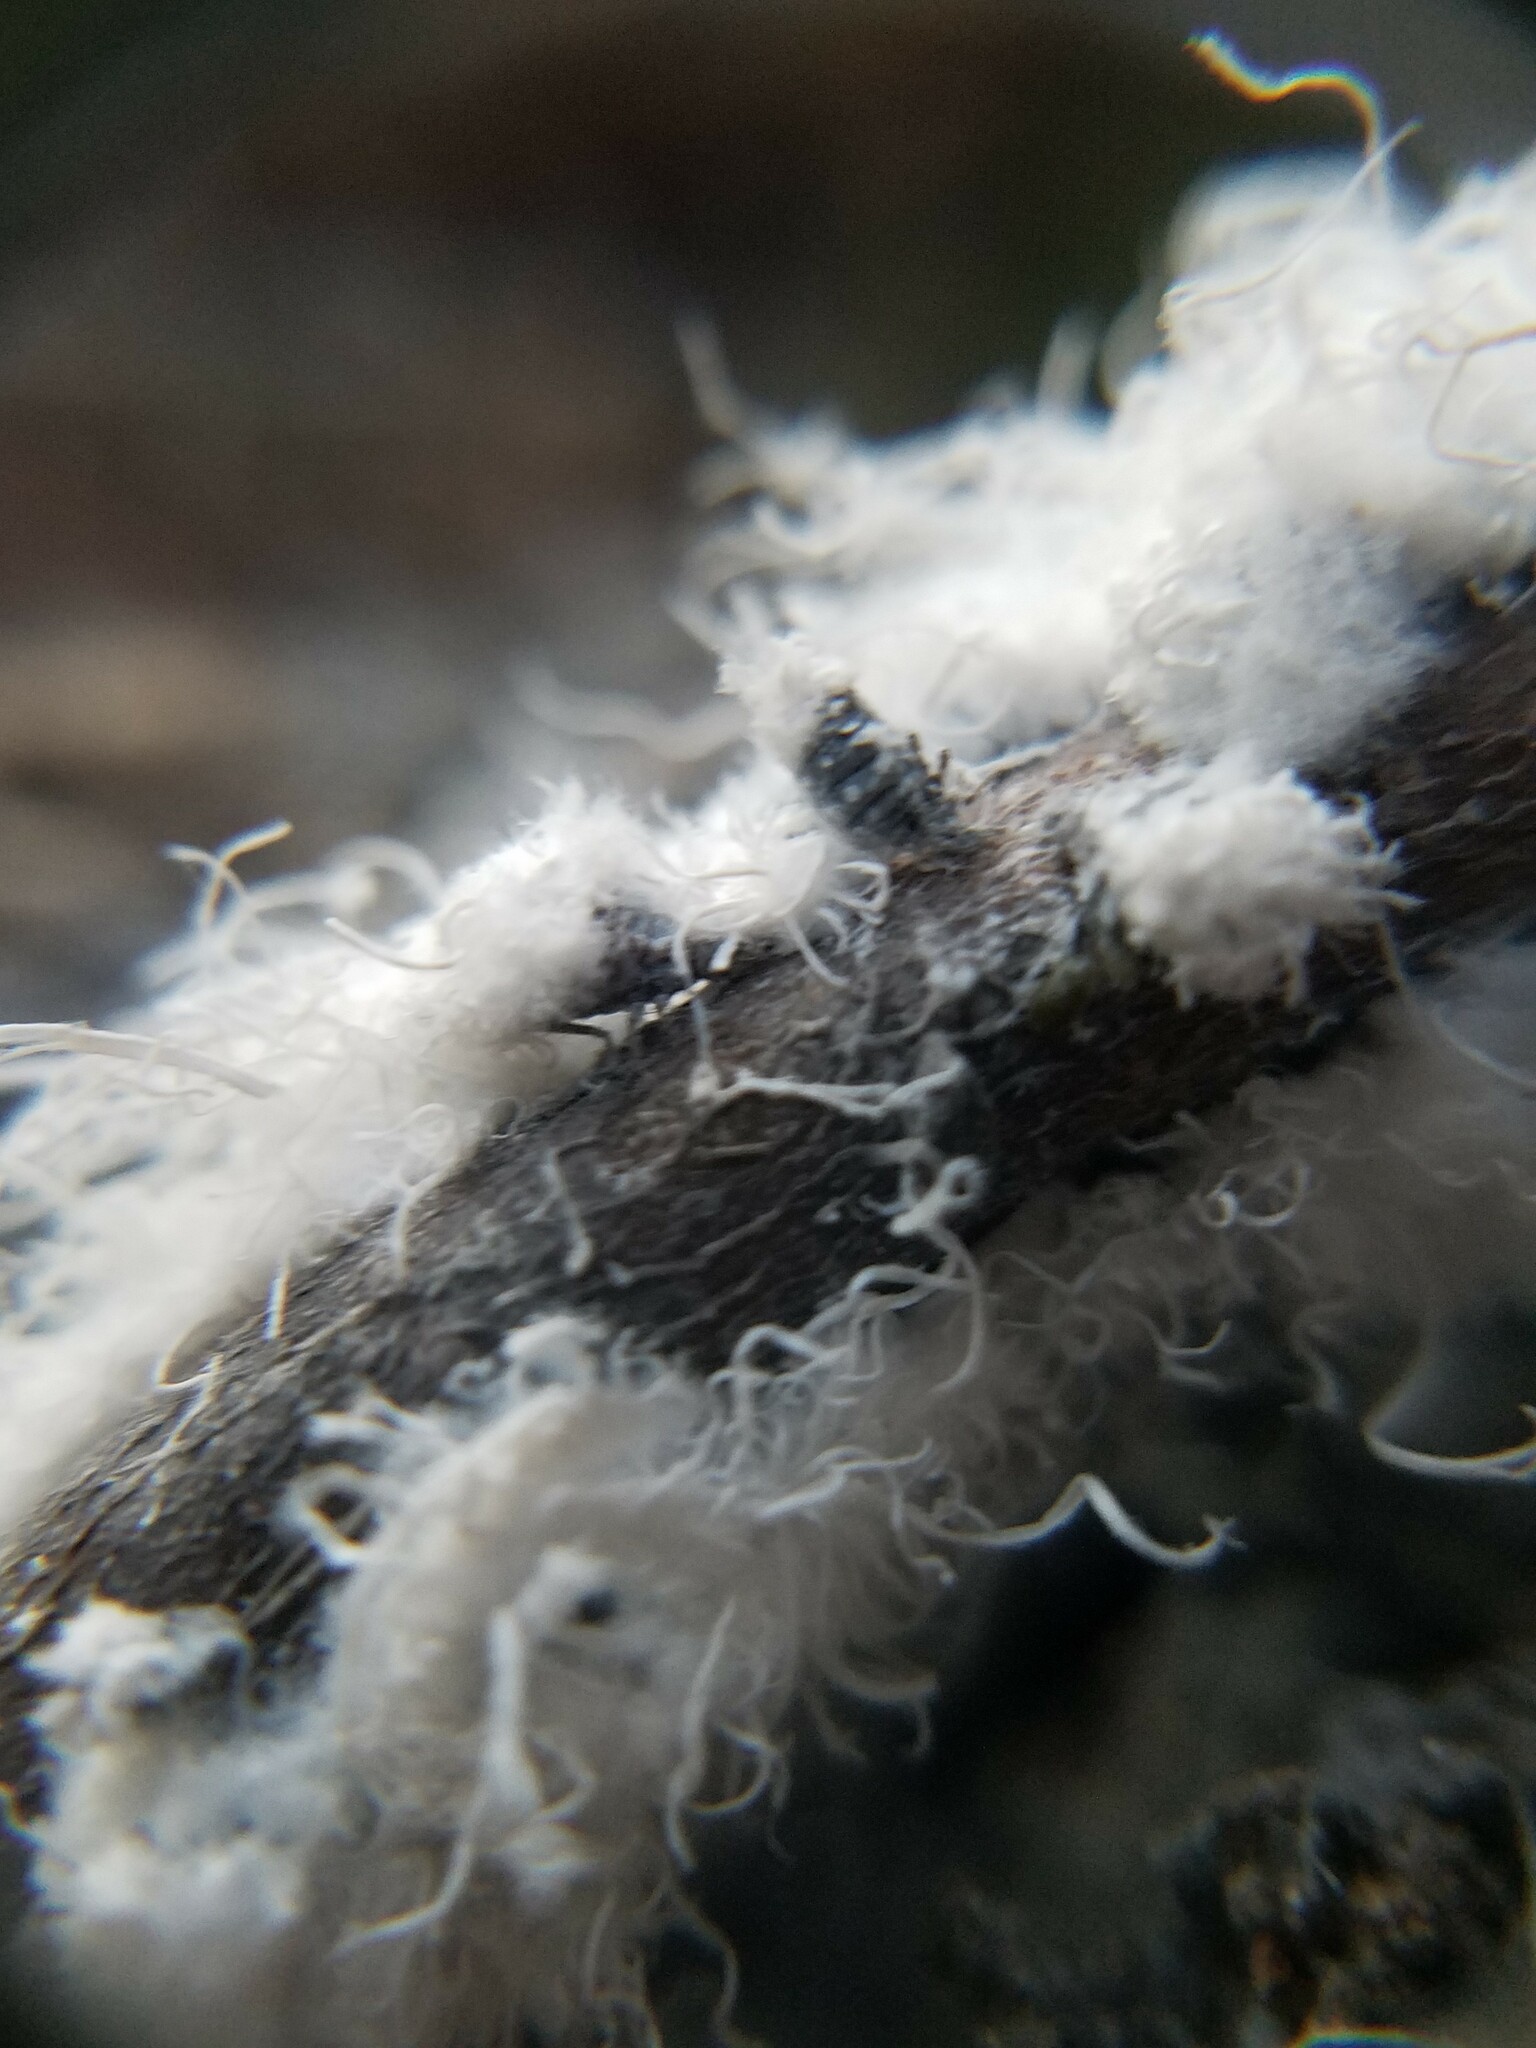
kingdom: Animalia
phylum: Arthropoda
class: Insecta
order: Hemiptera
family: Aphididae
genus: Prociphilus
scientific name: Prociphilus tessellatus
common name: Woolly alder aphid
